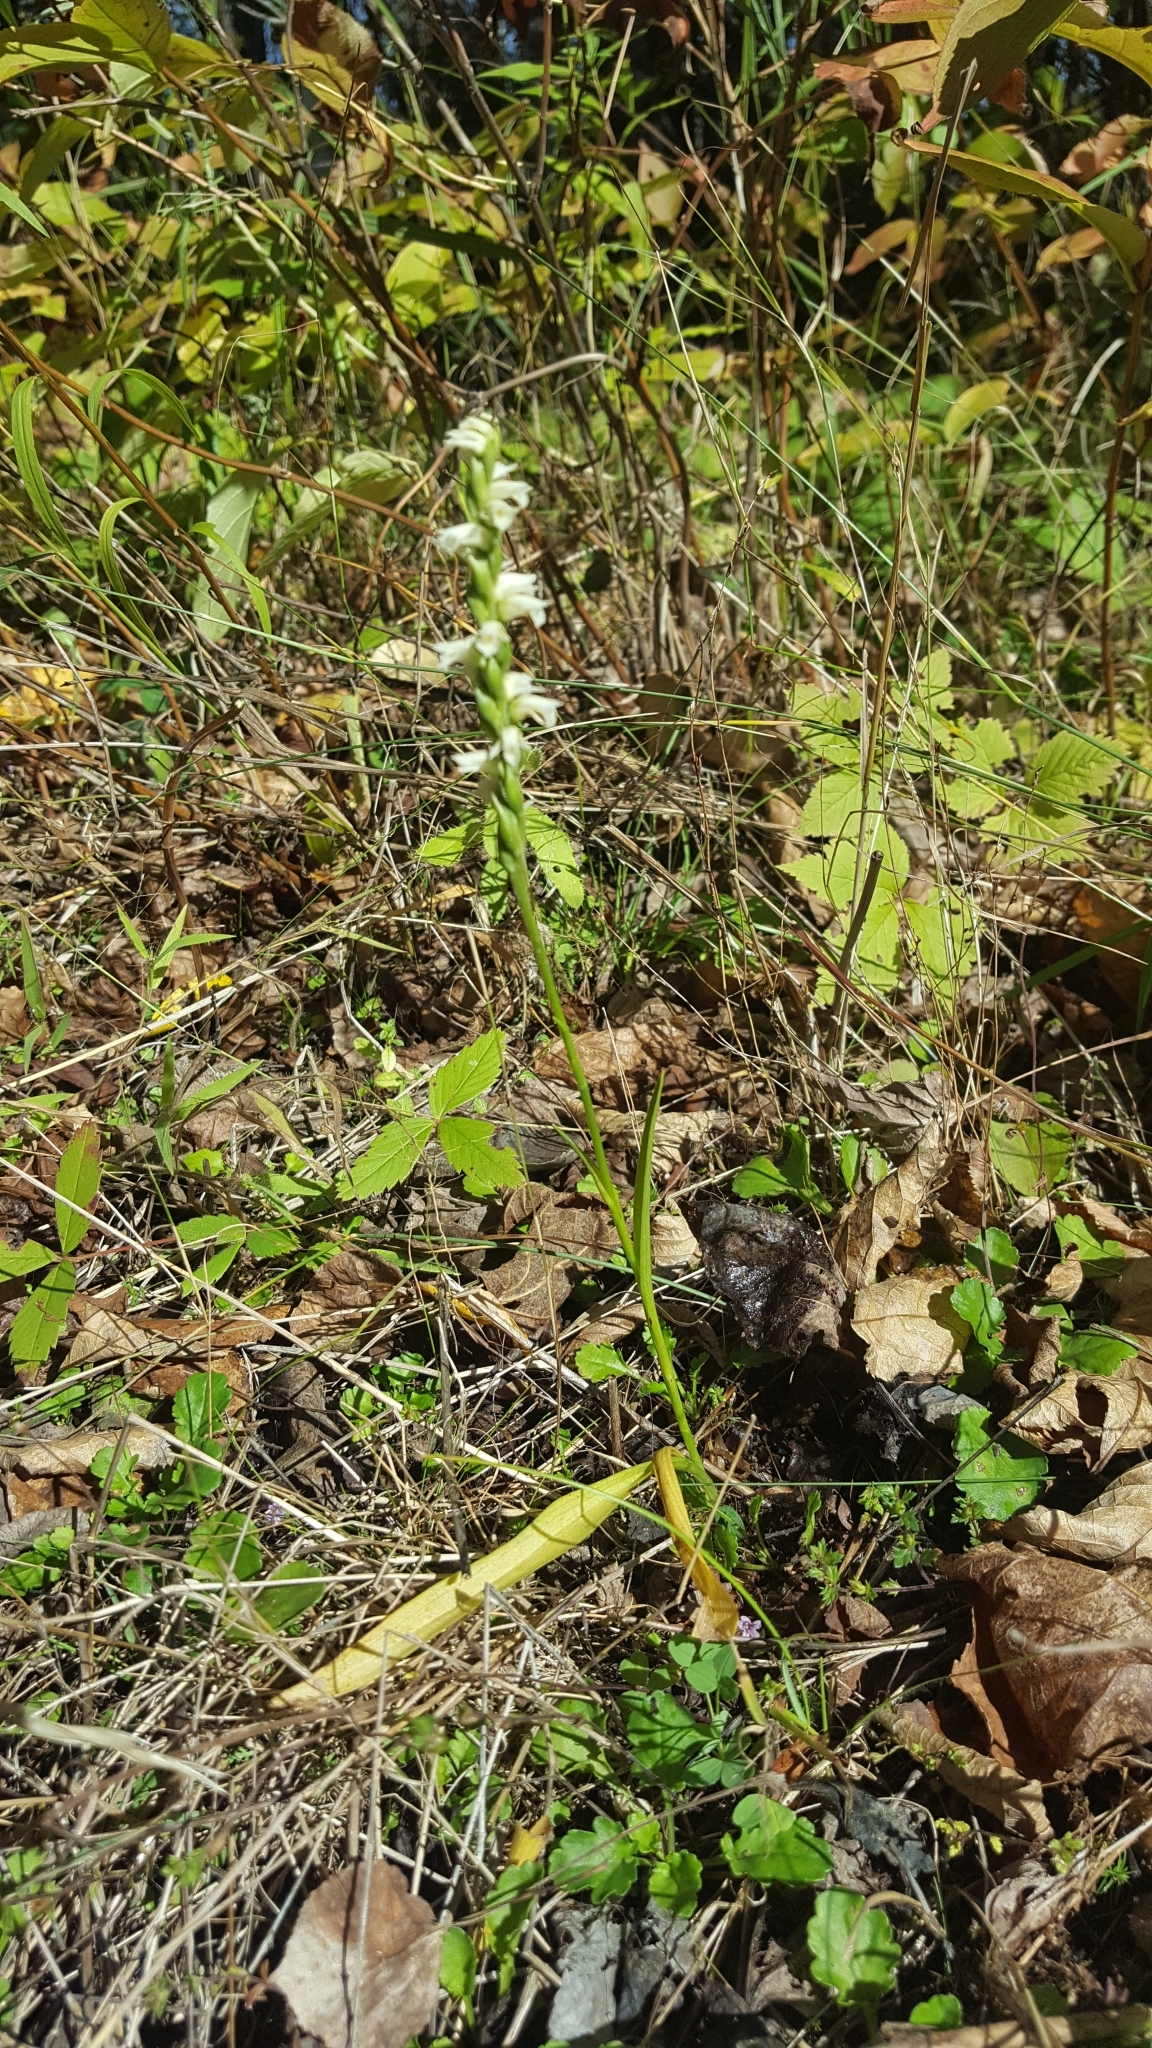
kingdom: Plantae
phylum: Tracheophyta
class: Liliopsida
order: Asparagales
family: Orchidaceae
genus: Spiranthes
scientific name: Spiranthes casei
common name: Case's ladies'-tresses
